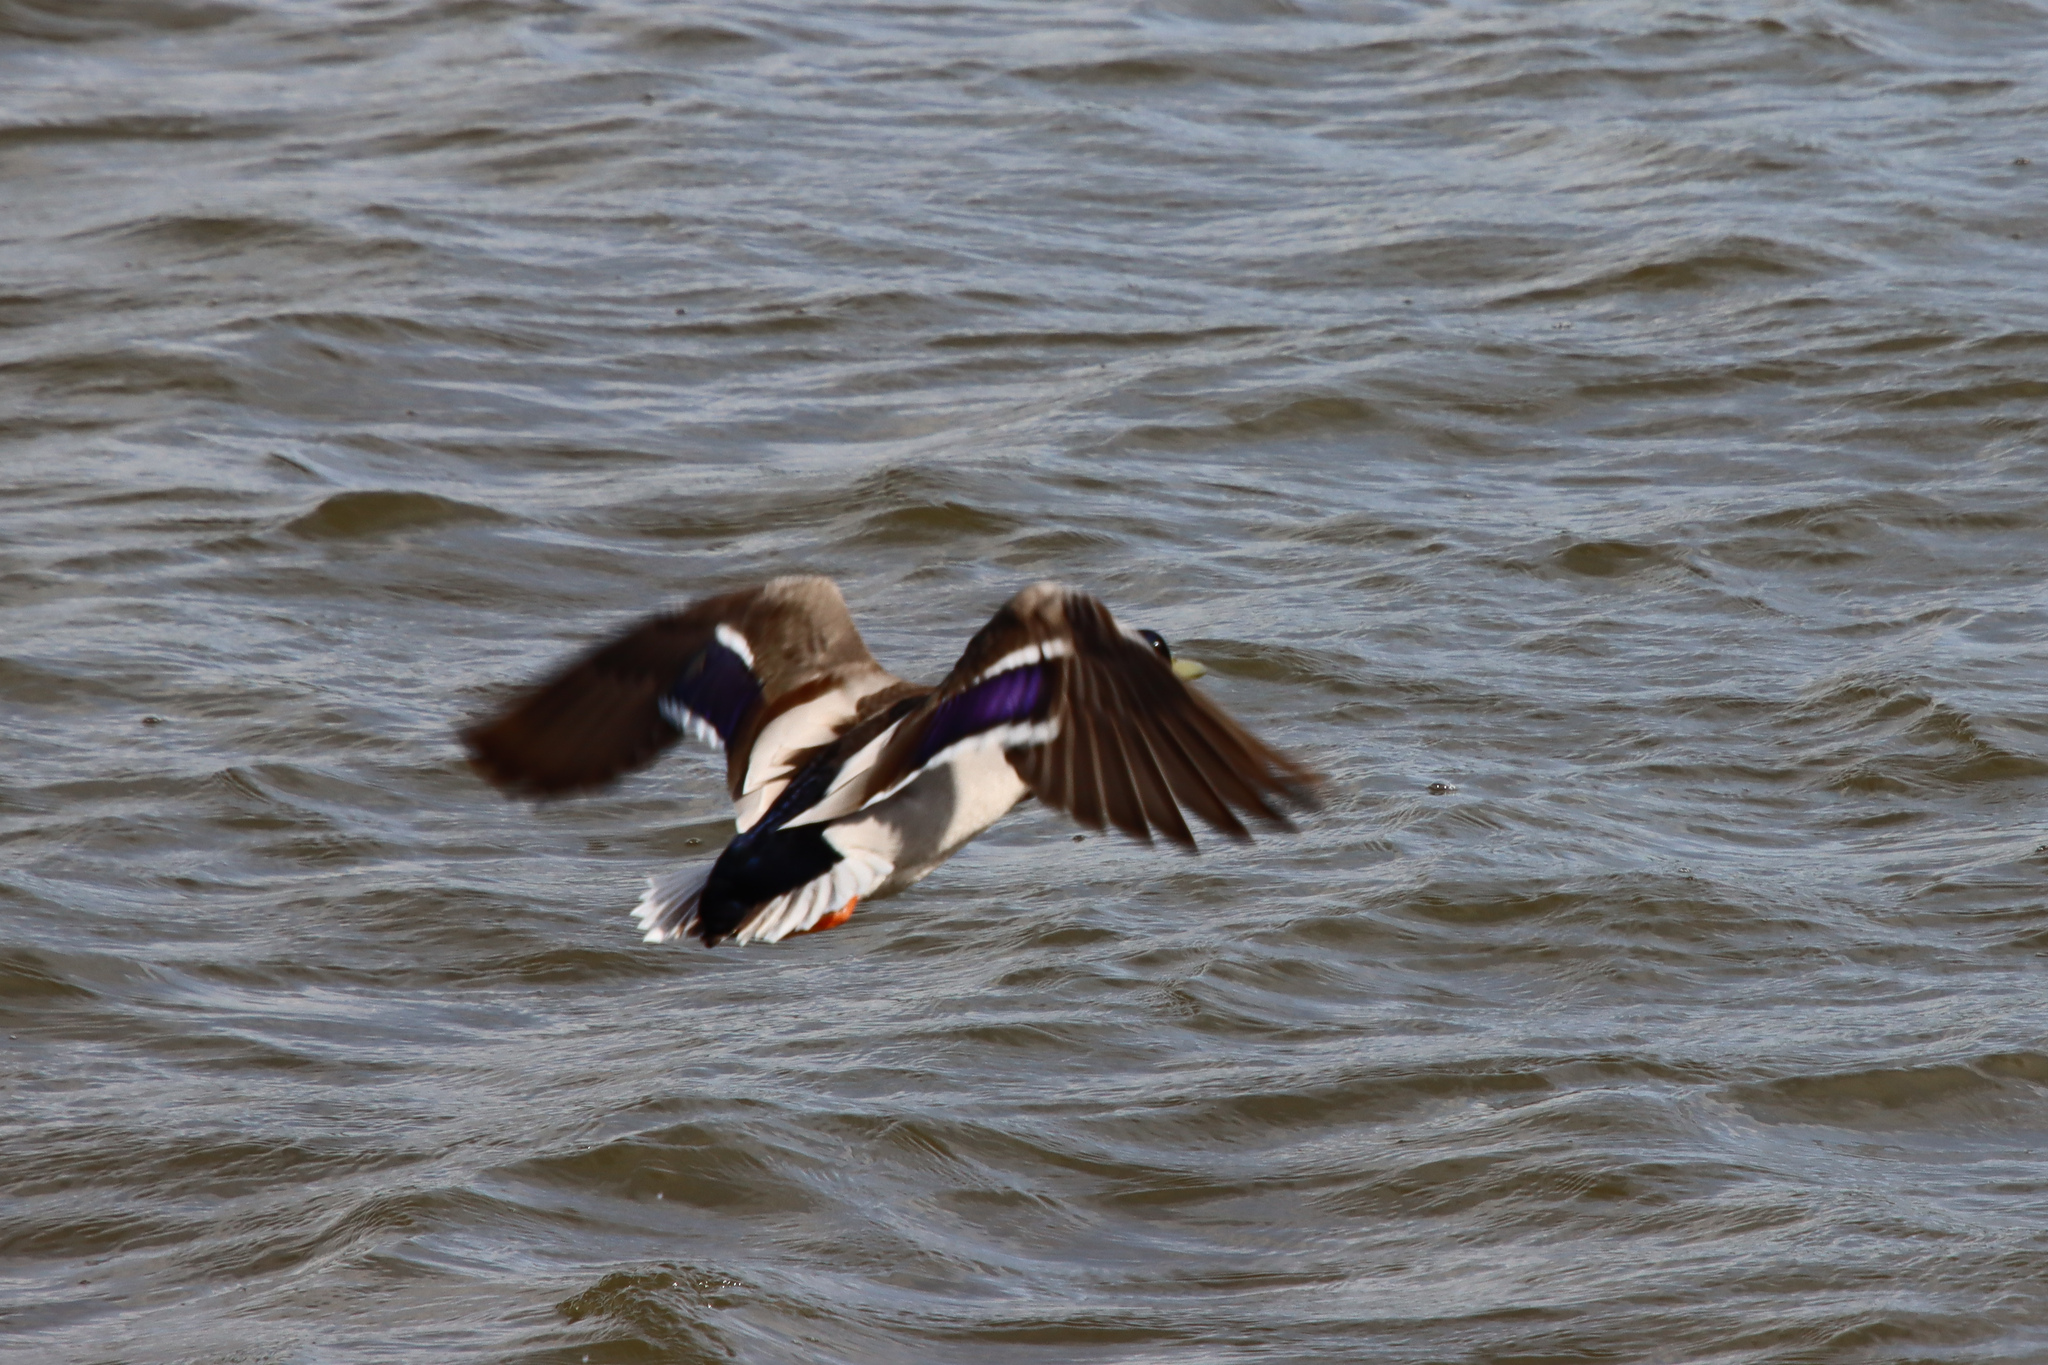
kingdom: Animalia
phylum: Chordata
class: Aves
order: Anseriformes
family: Anatidae
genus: Anas
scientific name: Anas platyrhynchos
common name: Mallard
